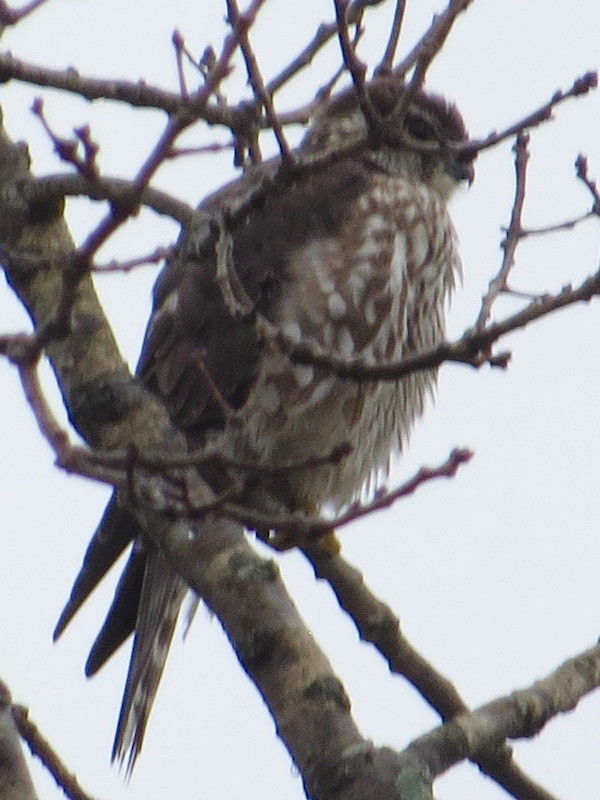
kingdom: Animalia
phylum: Chordata
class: Aves
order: Falconiformes
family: Falconidae
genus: Falco
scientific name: Falco columbarius
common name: Merlin
